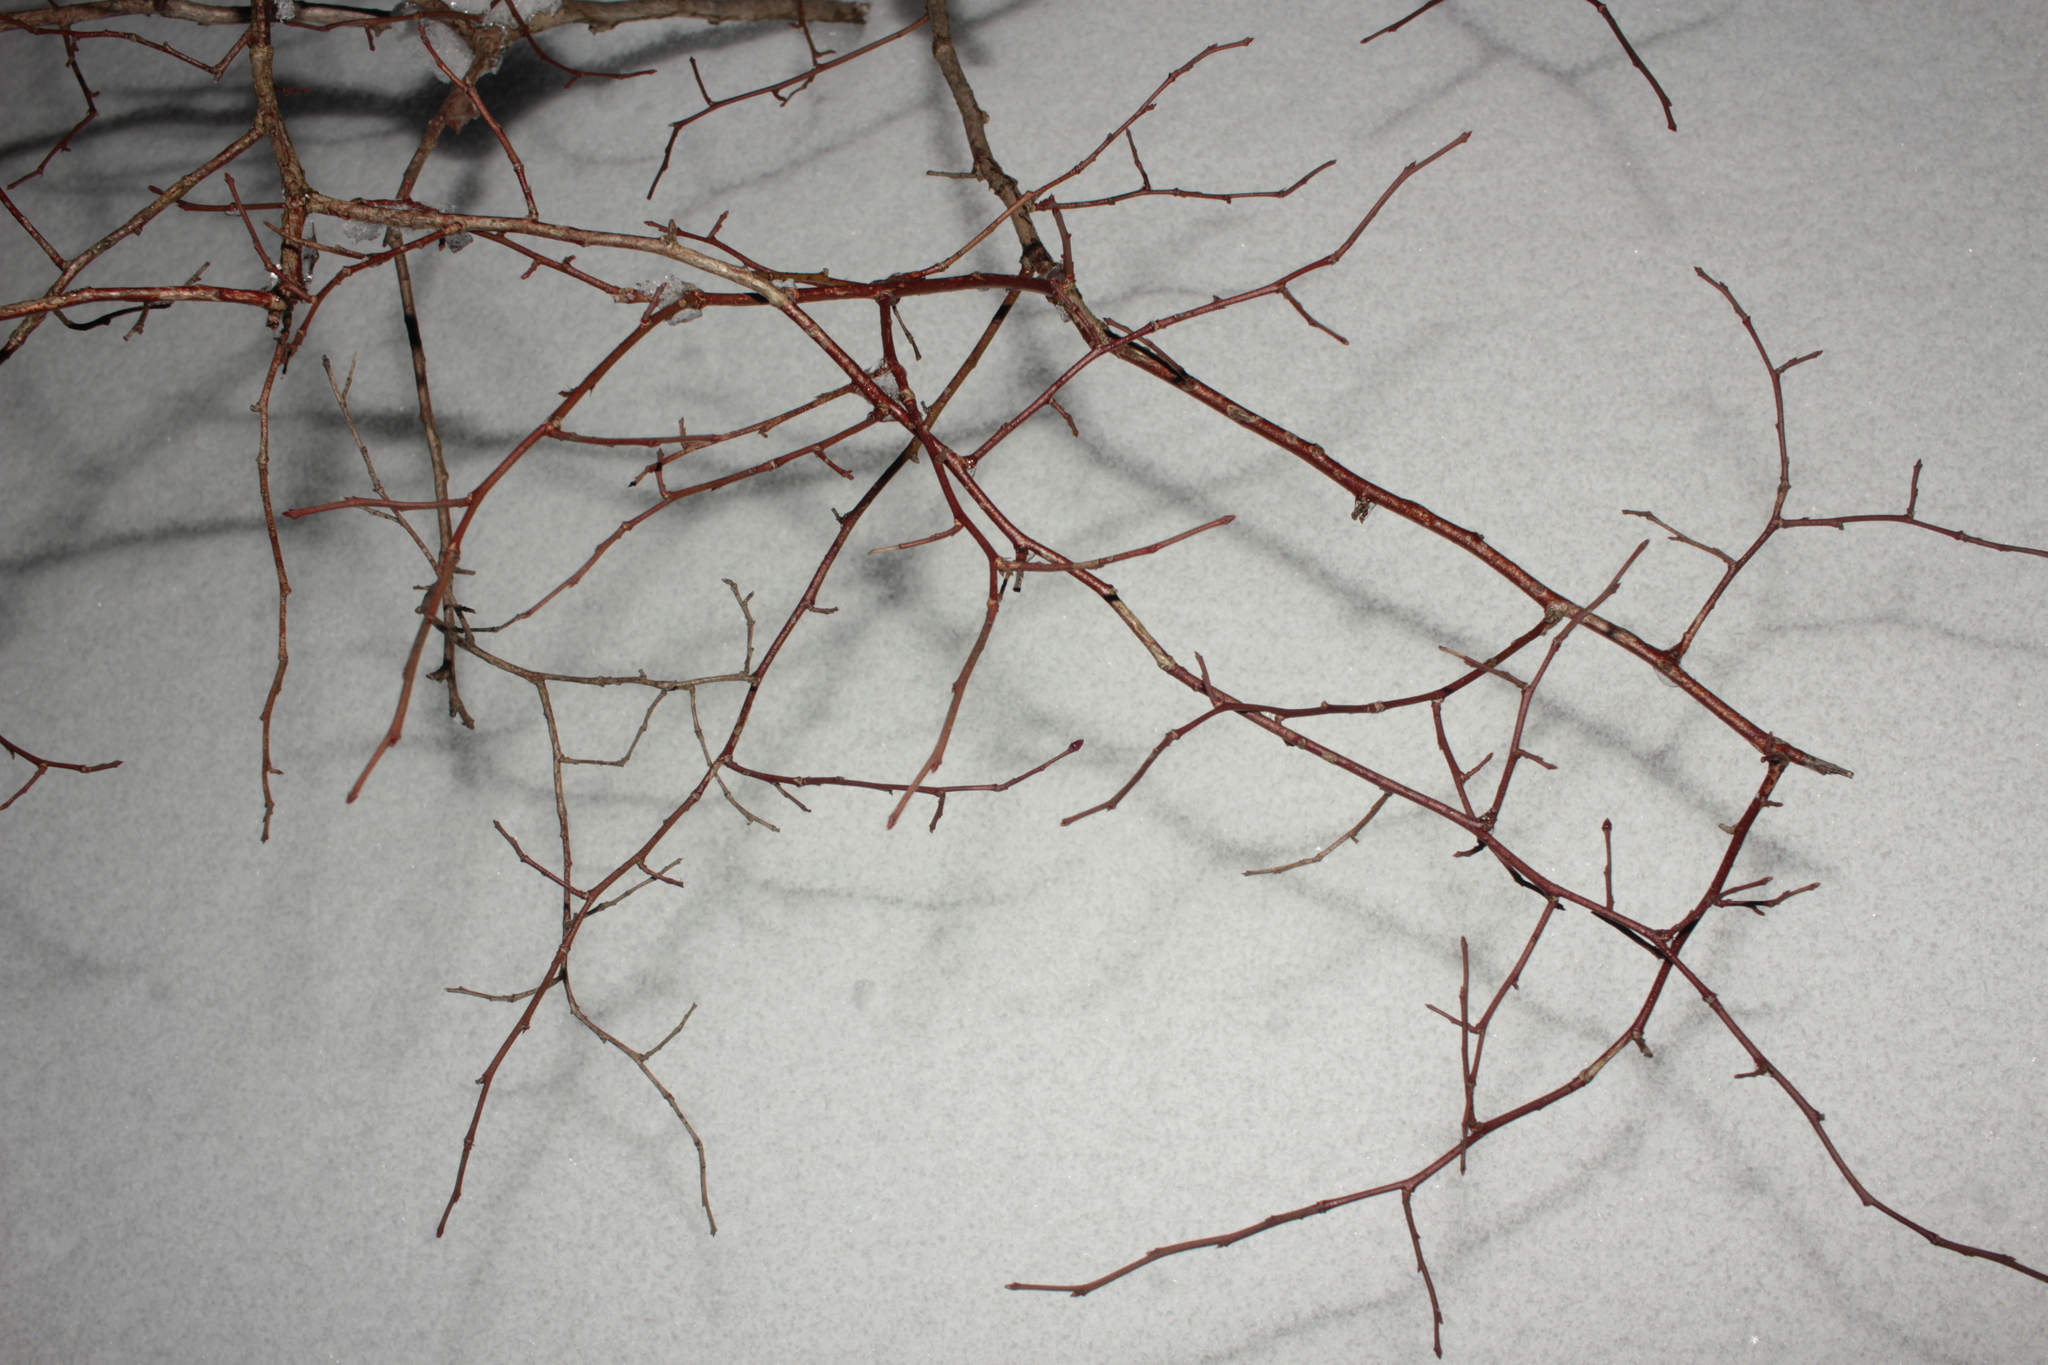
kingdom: Plantae
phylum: Tracheophyta
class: Magnoliopsida
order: Ericales
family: Ericaceae
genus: Vaccinium
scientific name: Vaccinium corymbosum
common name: Blueberry
